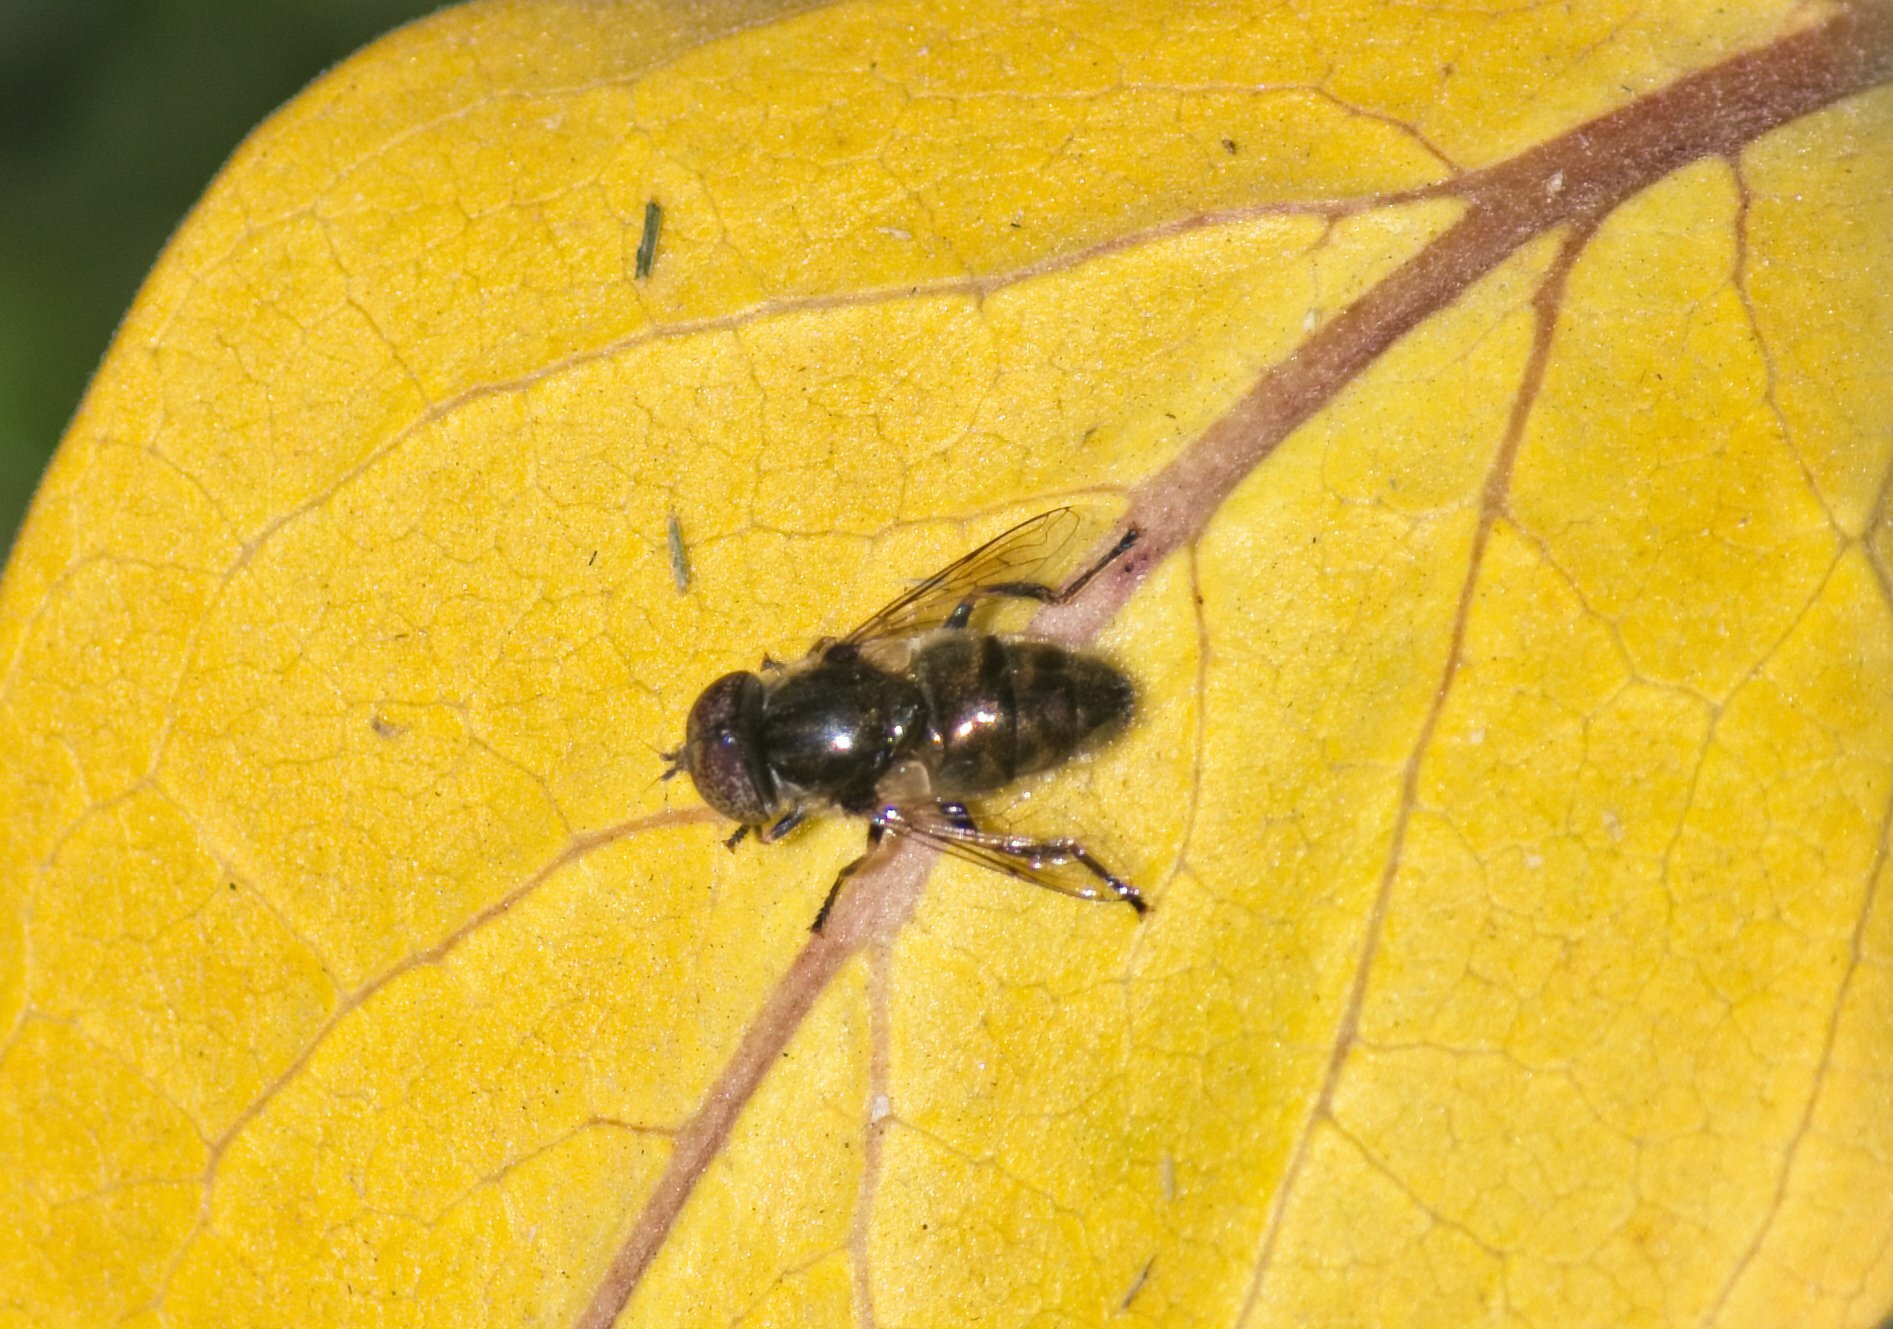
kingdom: Animalia
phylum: Arthropoda
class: Insecta
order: Diptera
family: Syrphidae
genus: Eristalinus
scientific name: Eristalinus aeneus
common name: Syrphid fly
